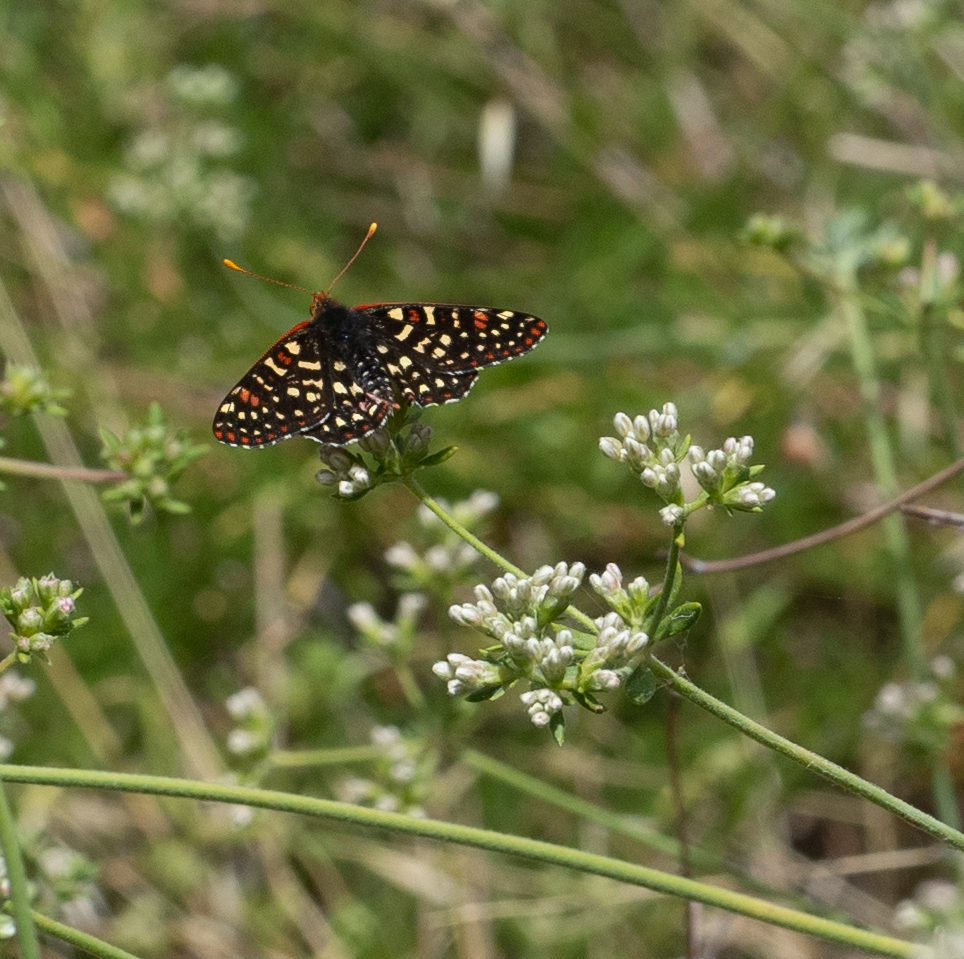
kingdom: Animalia
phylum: Arthropoda
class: Insecta
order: Lepidoptera
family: Nymphalidae
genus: Occidryas
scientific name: Occidryas chalcedona
